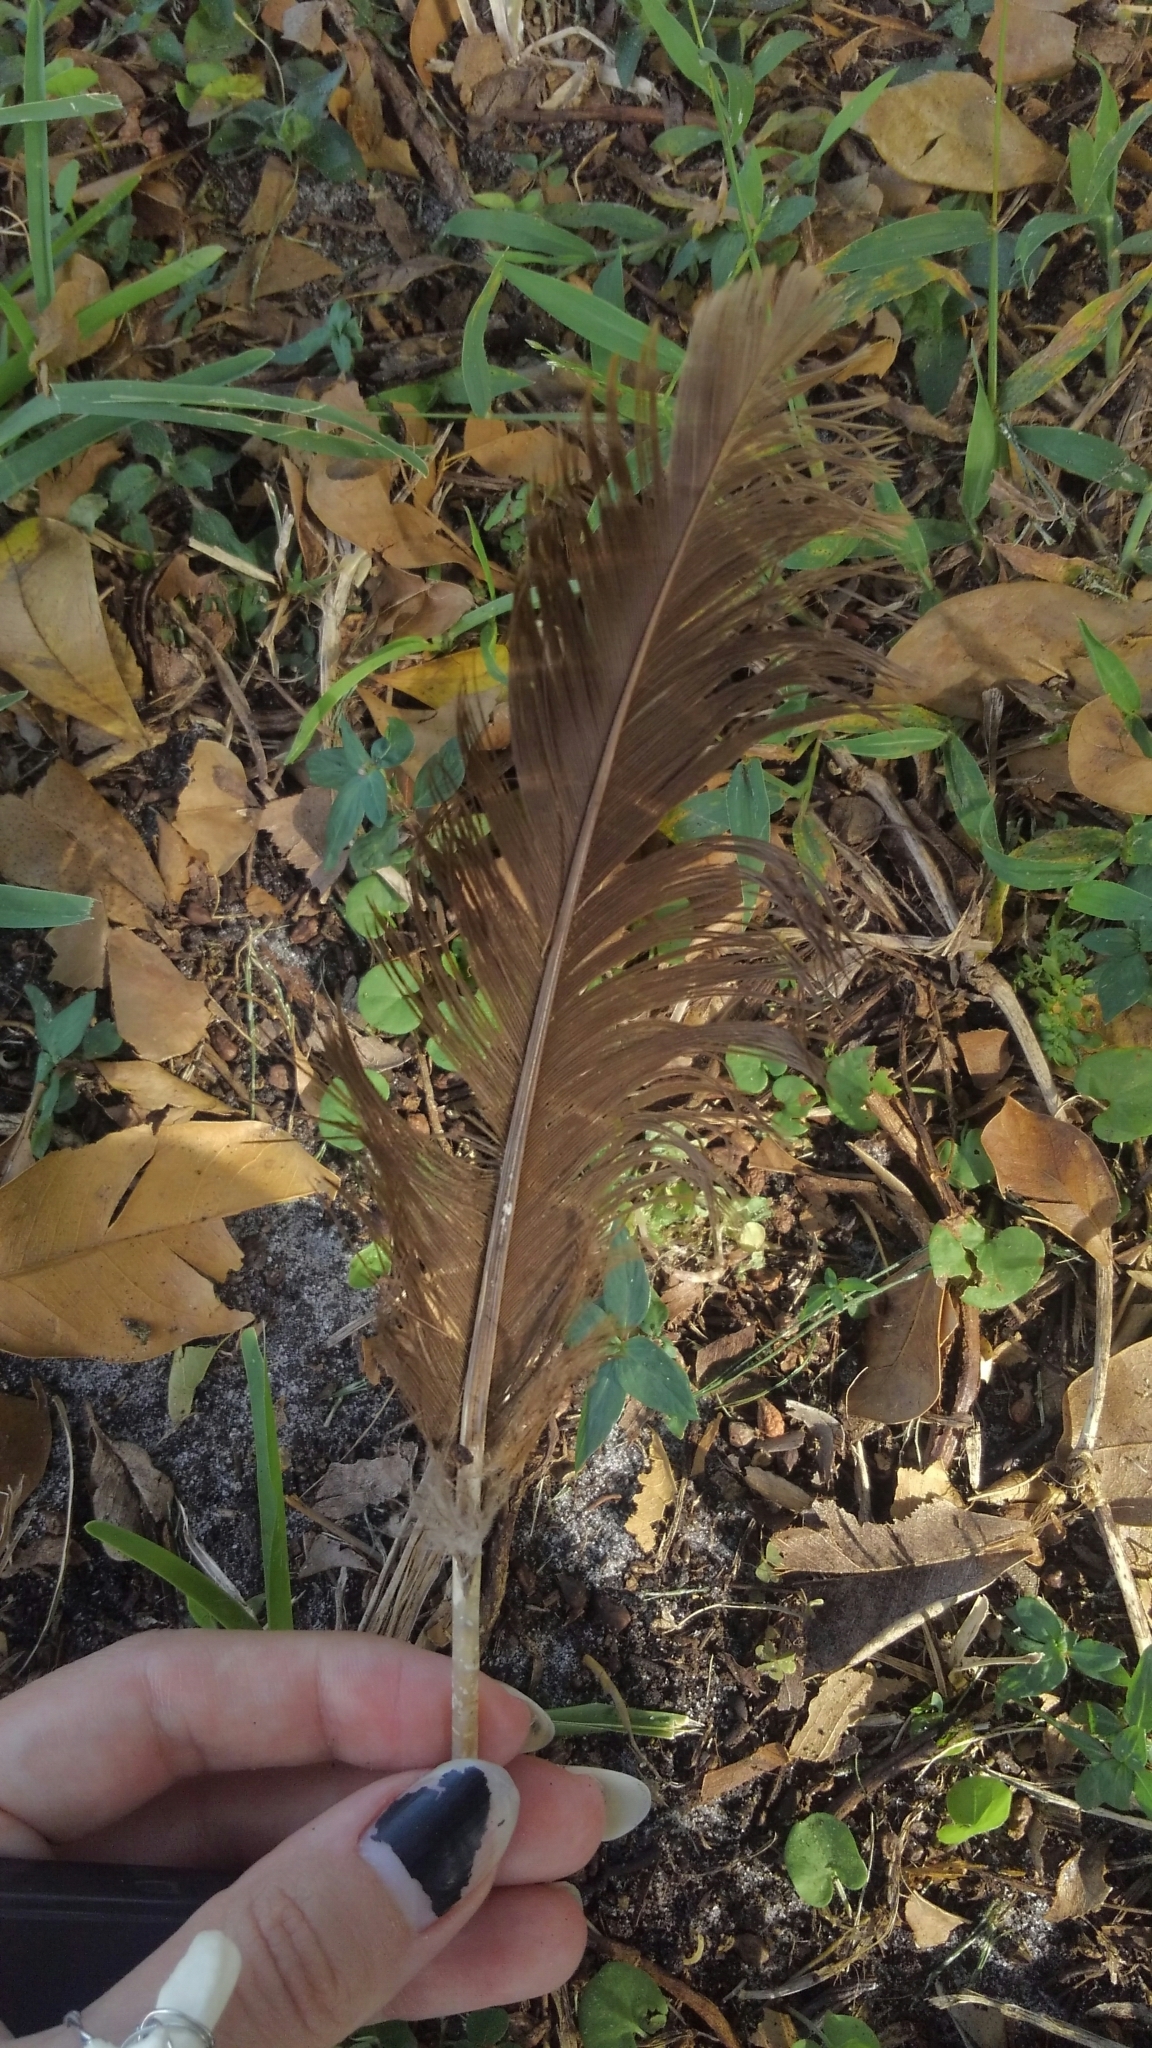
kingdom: Animalia
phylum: Chordata
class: Aves
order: Anseriformes
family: Anatidae
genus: Cairina
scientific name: Cairina moschata
